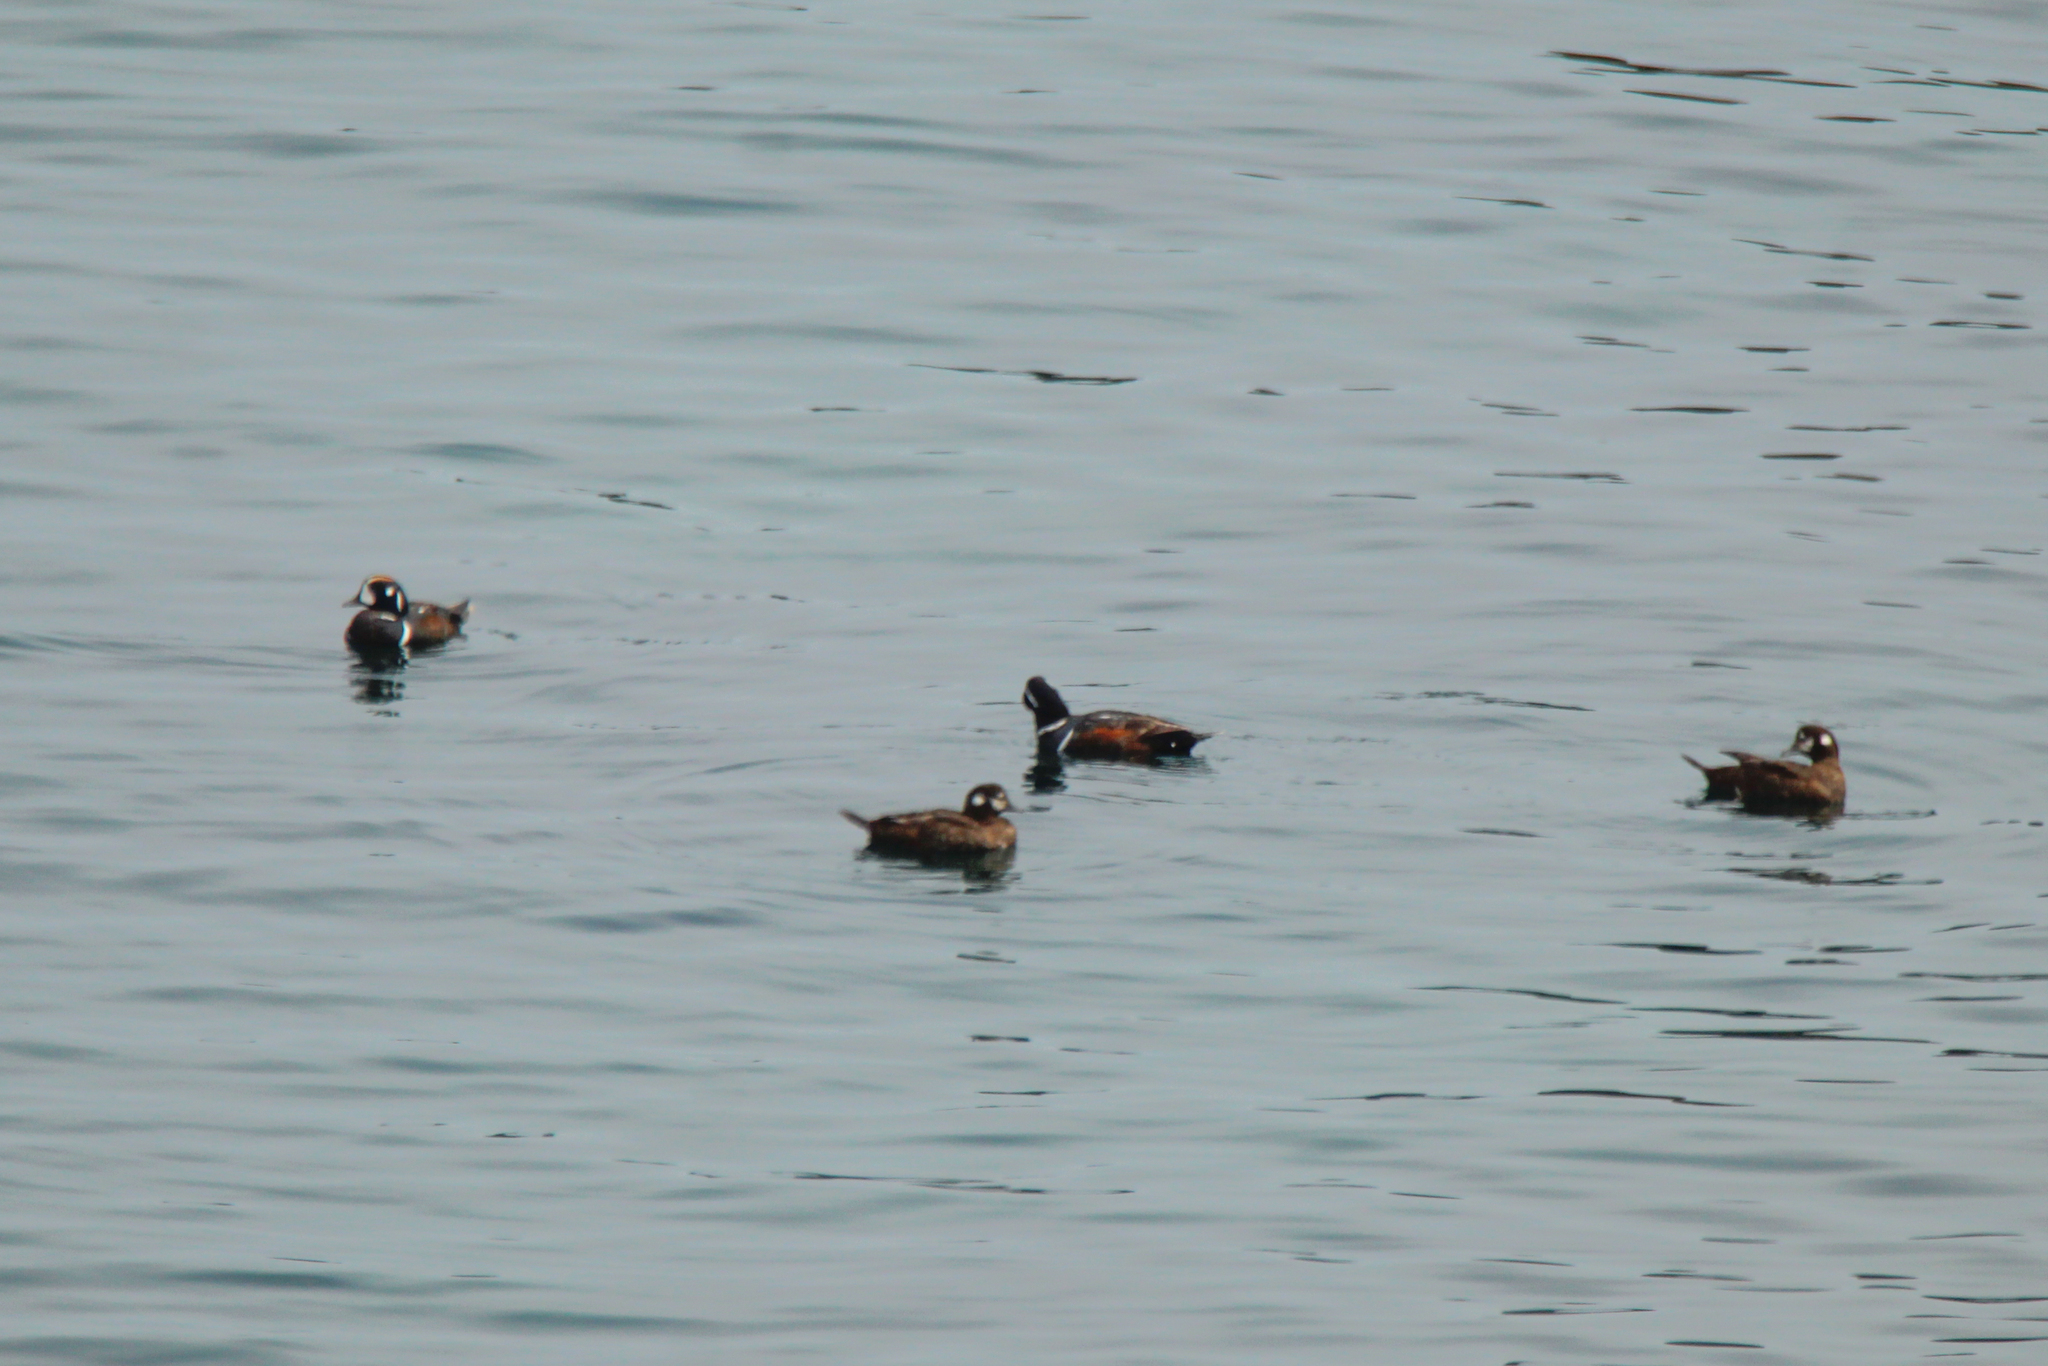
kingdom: Animalia
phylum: Chordata
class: Aves
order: Anseriformes
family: Anatidae
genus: Histrionicus
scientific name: Histrionicus histrionicus
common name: Harlequin duck
